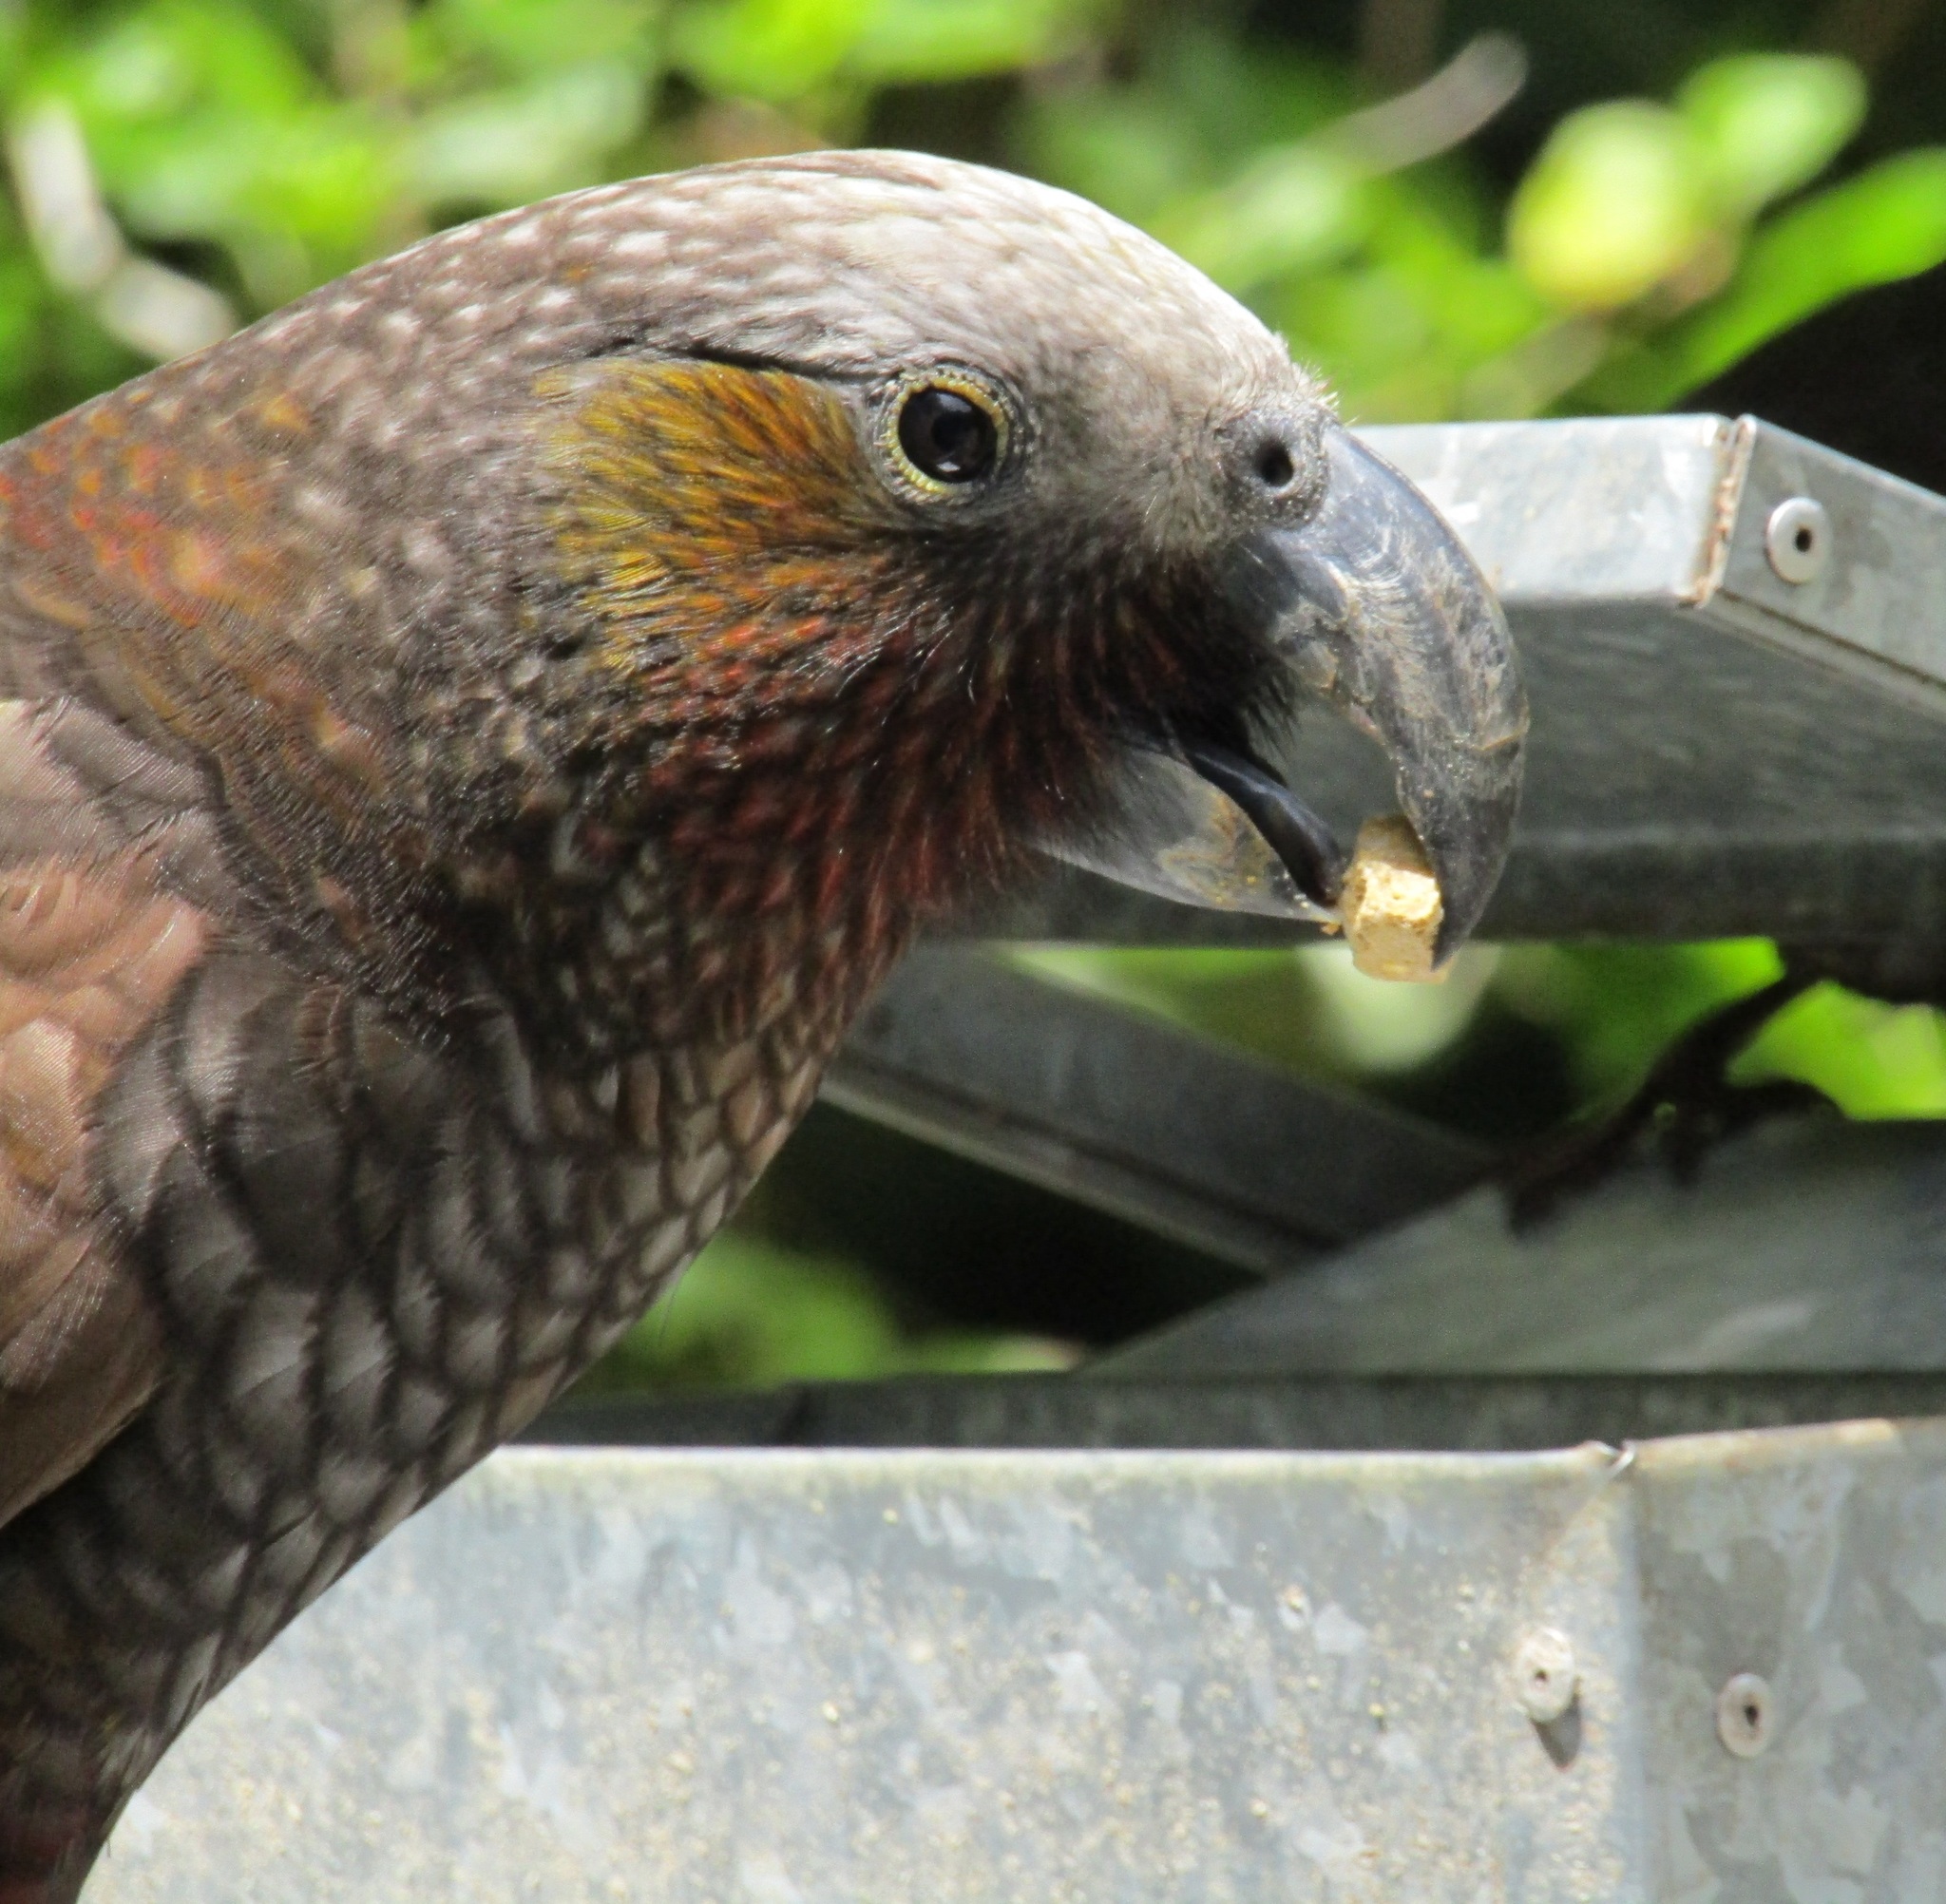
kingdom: Animalia
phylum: Chordata
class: Aves
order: Psittaciformes
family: Psittacidae
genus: Nestor
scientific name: Nestor meridionalis
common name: New zealand kaka
